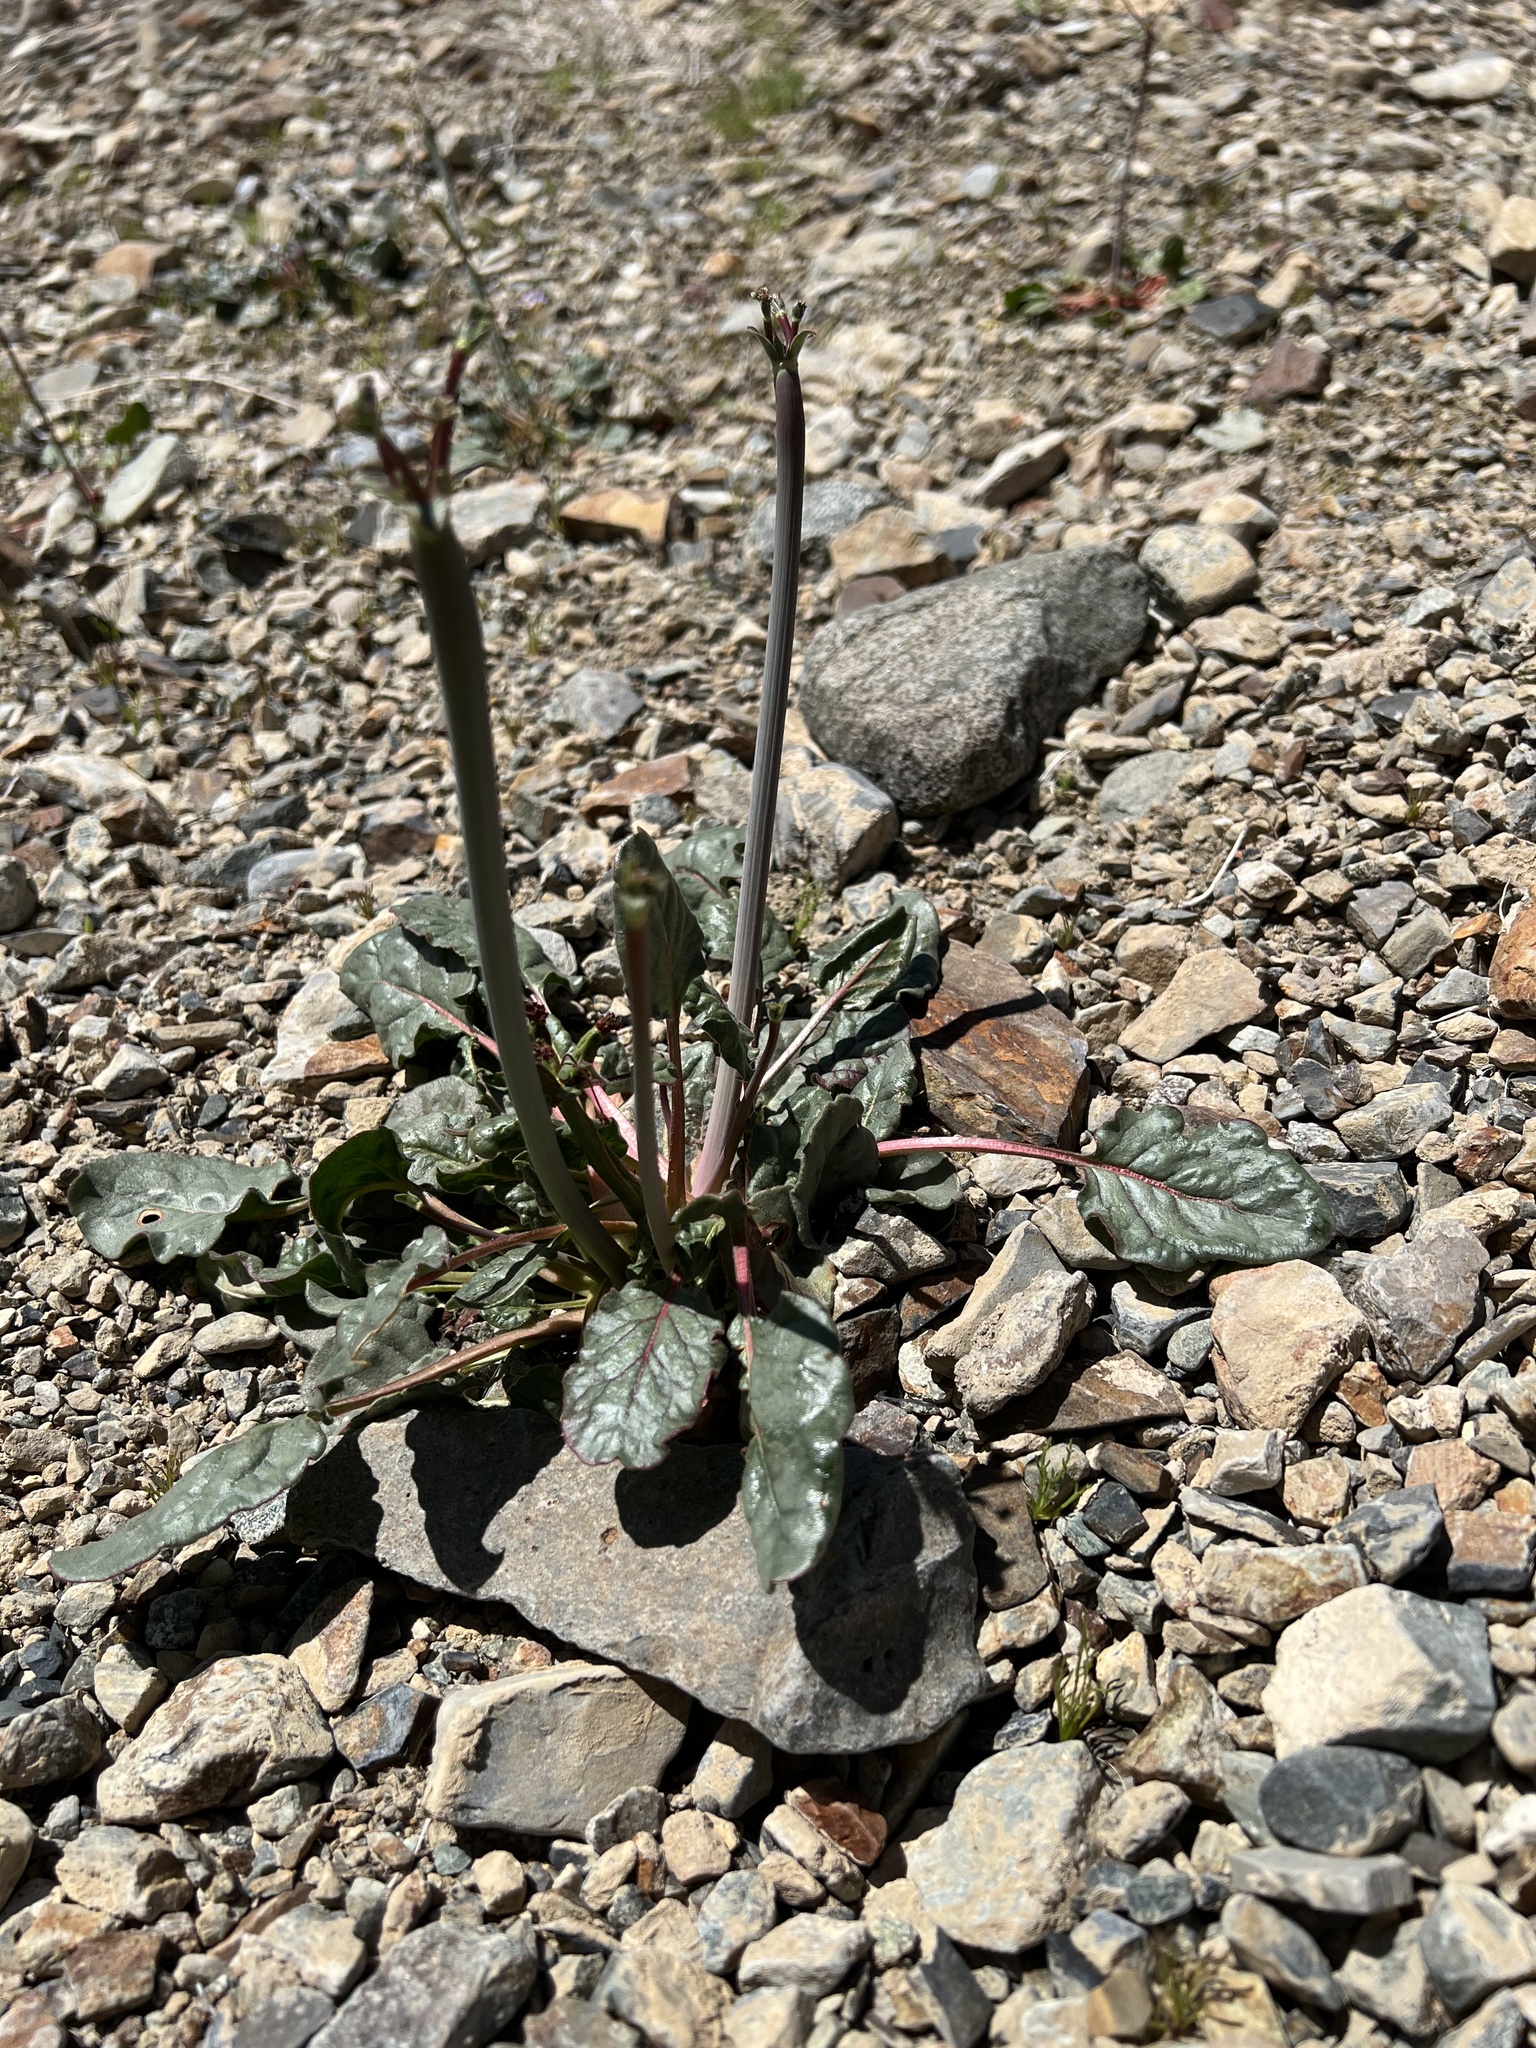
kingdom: Plantae
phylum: Tracheophyta
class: Magnoliopsida
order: Caryophyllales
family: Polygonaceae
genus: Eriogonum
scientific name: Eriogonum inflatum
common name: Desert trumpet
